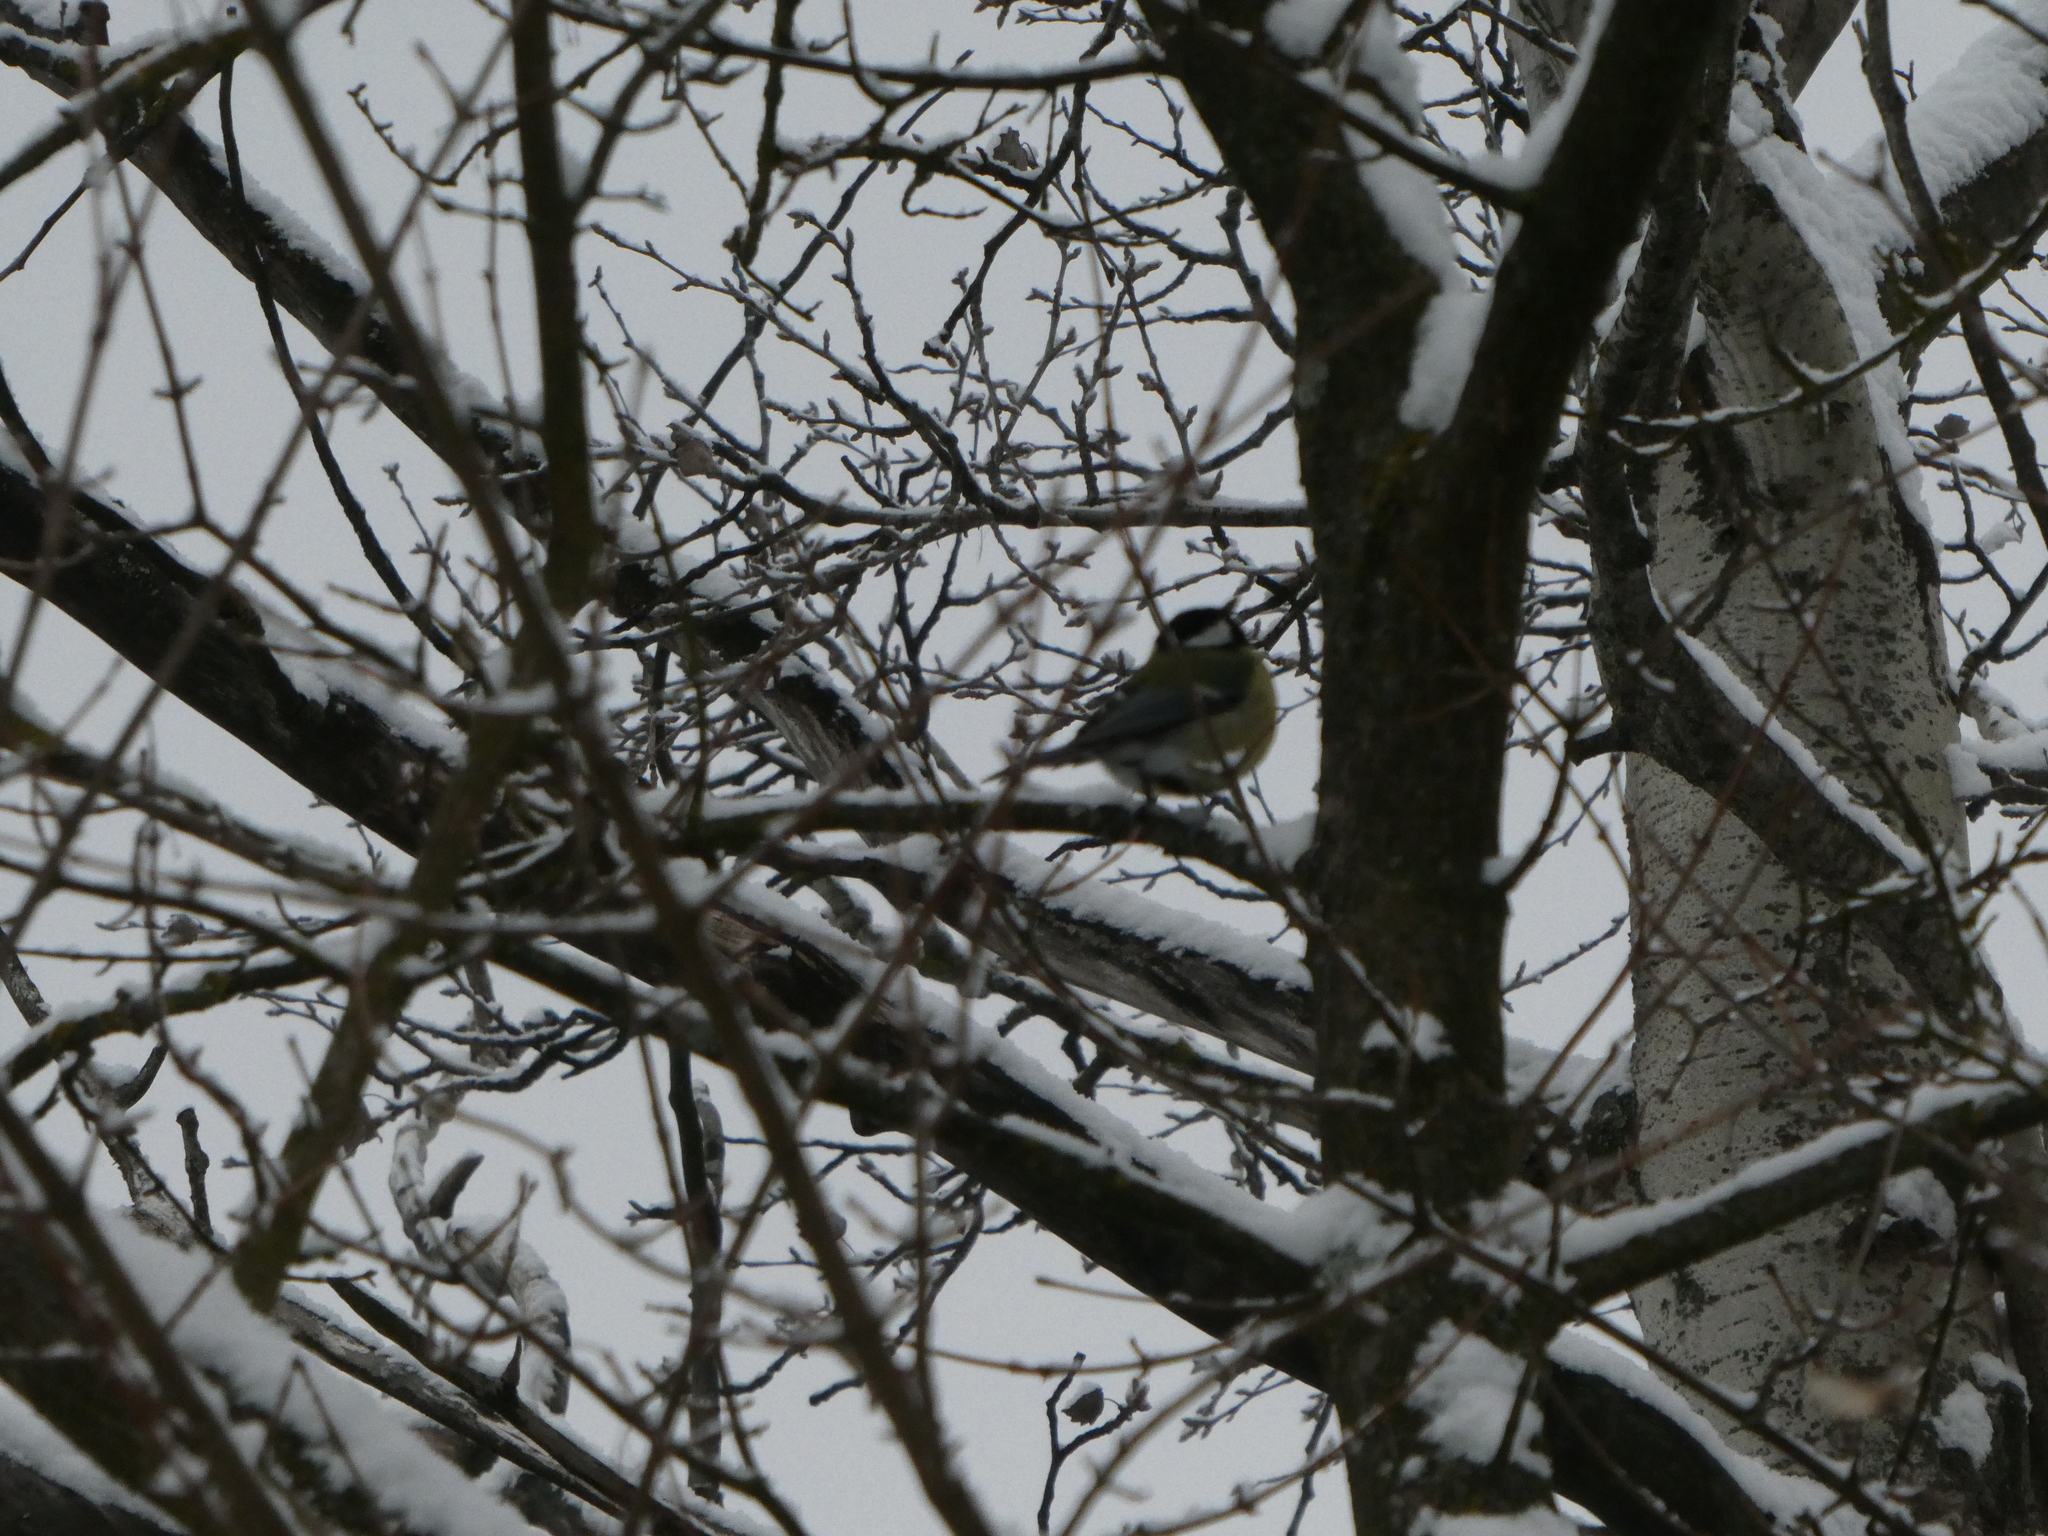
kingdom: Animalia
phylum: Chordata
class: Aves
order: Passeriformes
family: Paridae
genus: Parus
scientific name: Parus major
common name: Great tit
